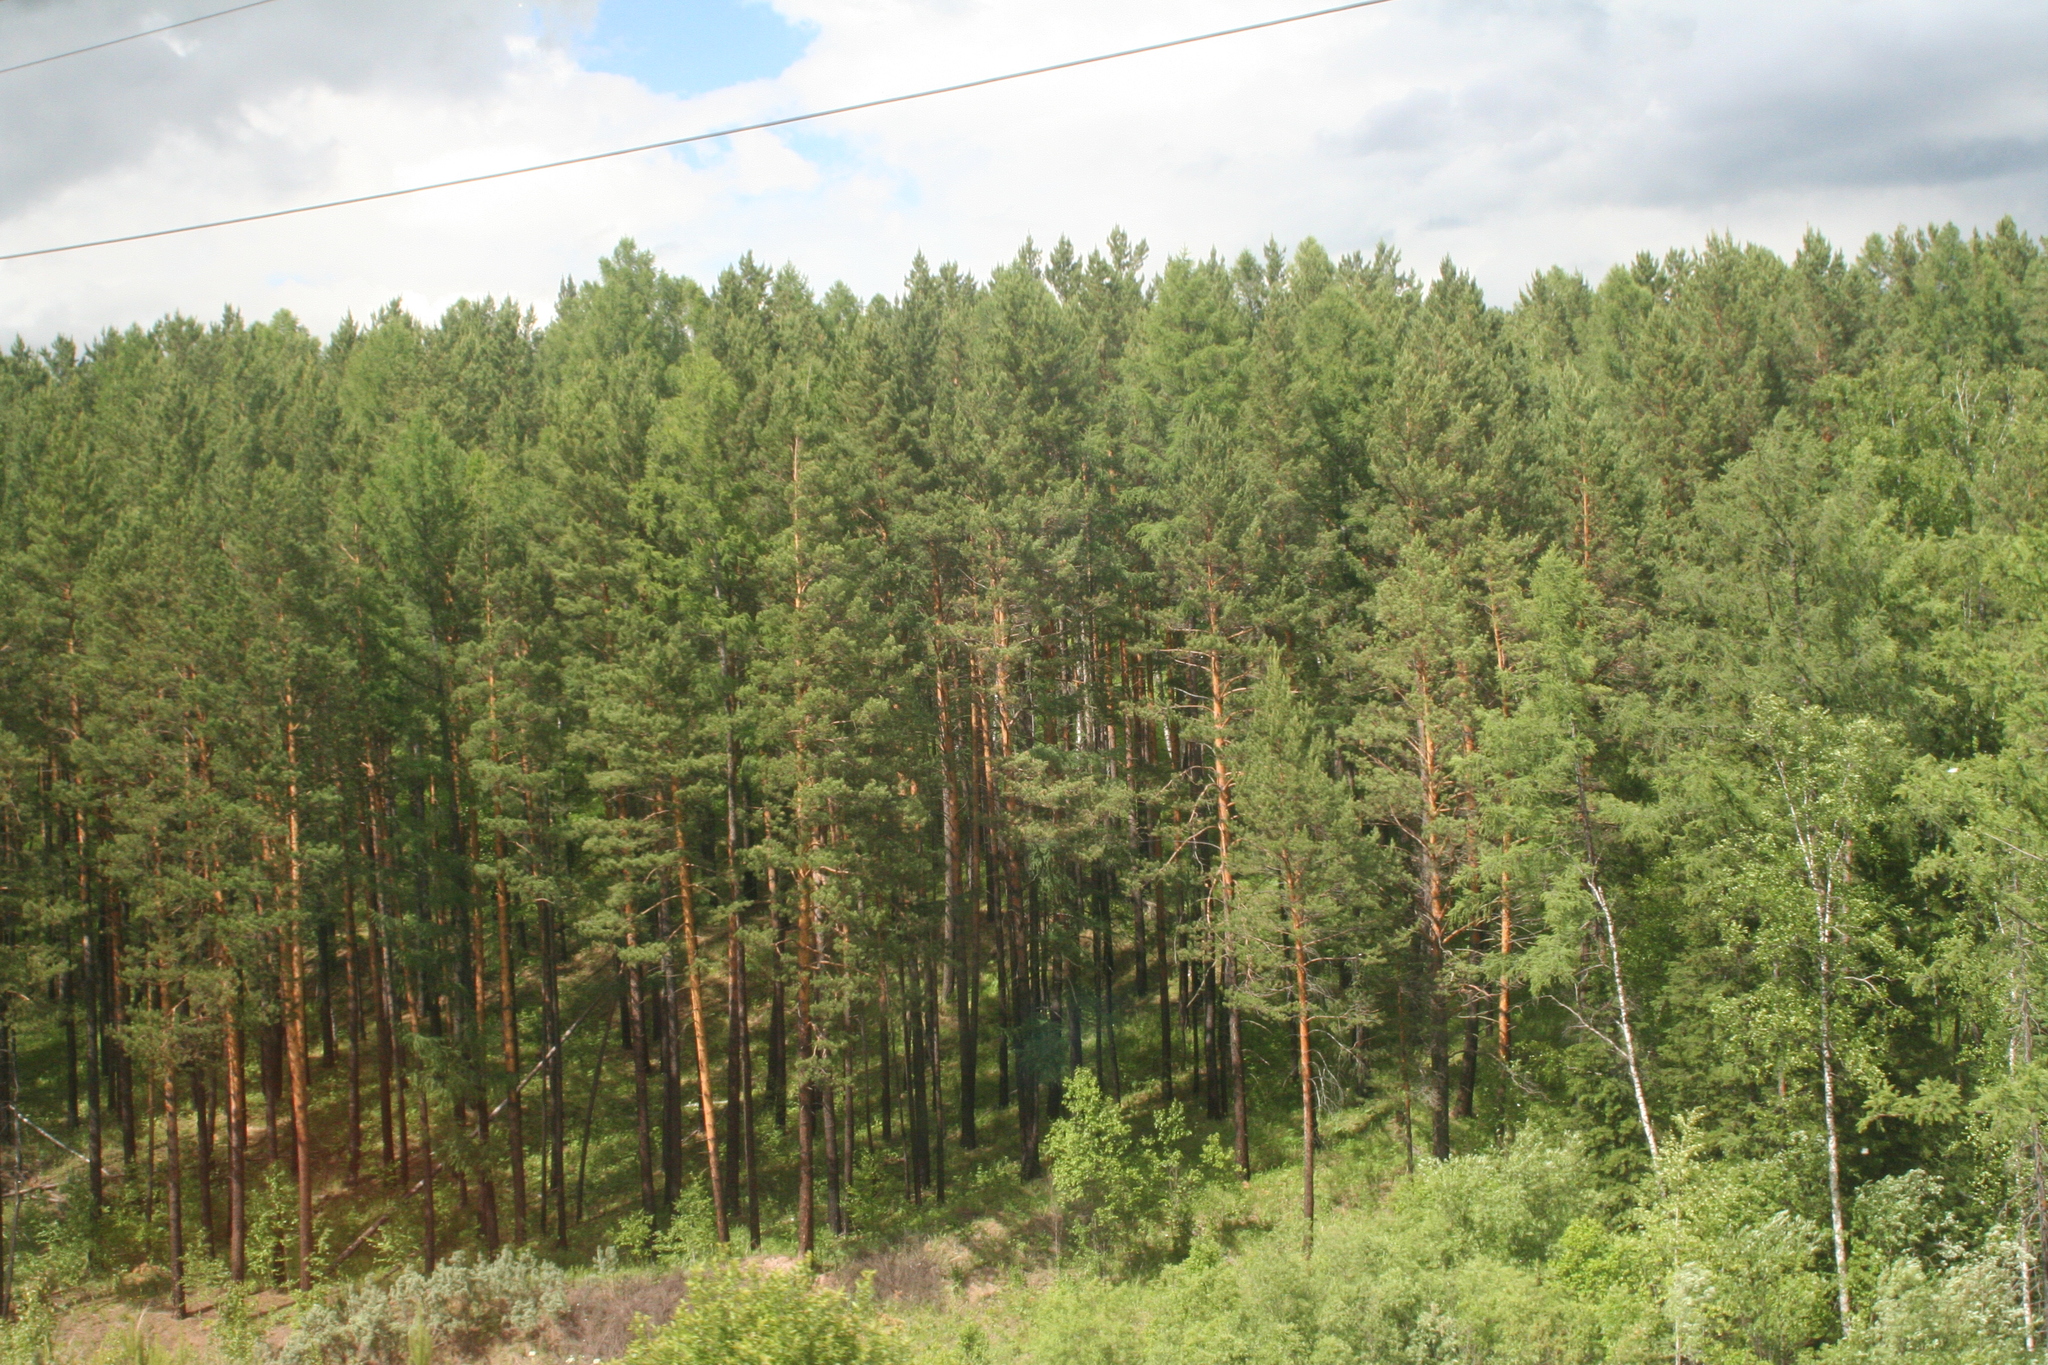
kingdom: Plantae
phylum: Tracheophyta
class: Pinopsida
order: Pinales
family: Pinaceae
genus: Pinus
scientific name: Pinus sylvestris
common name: Scots pine
